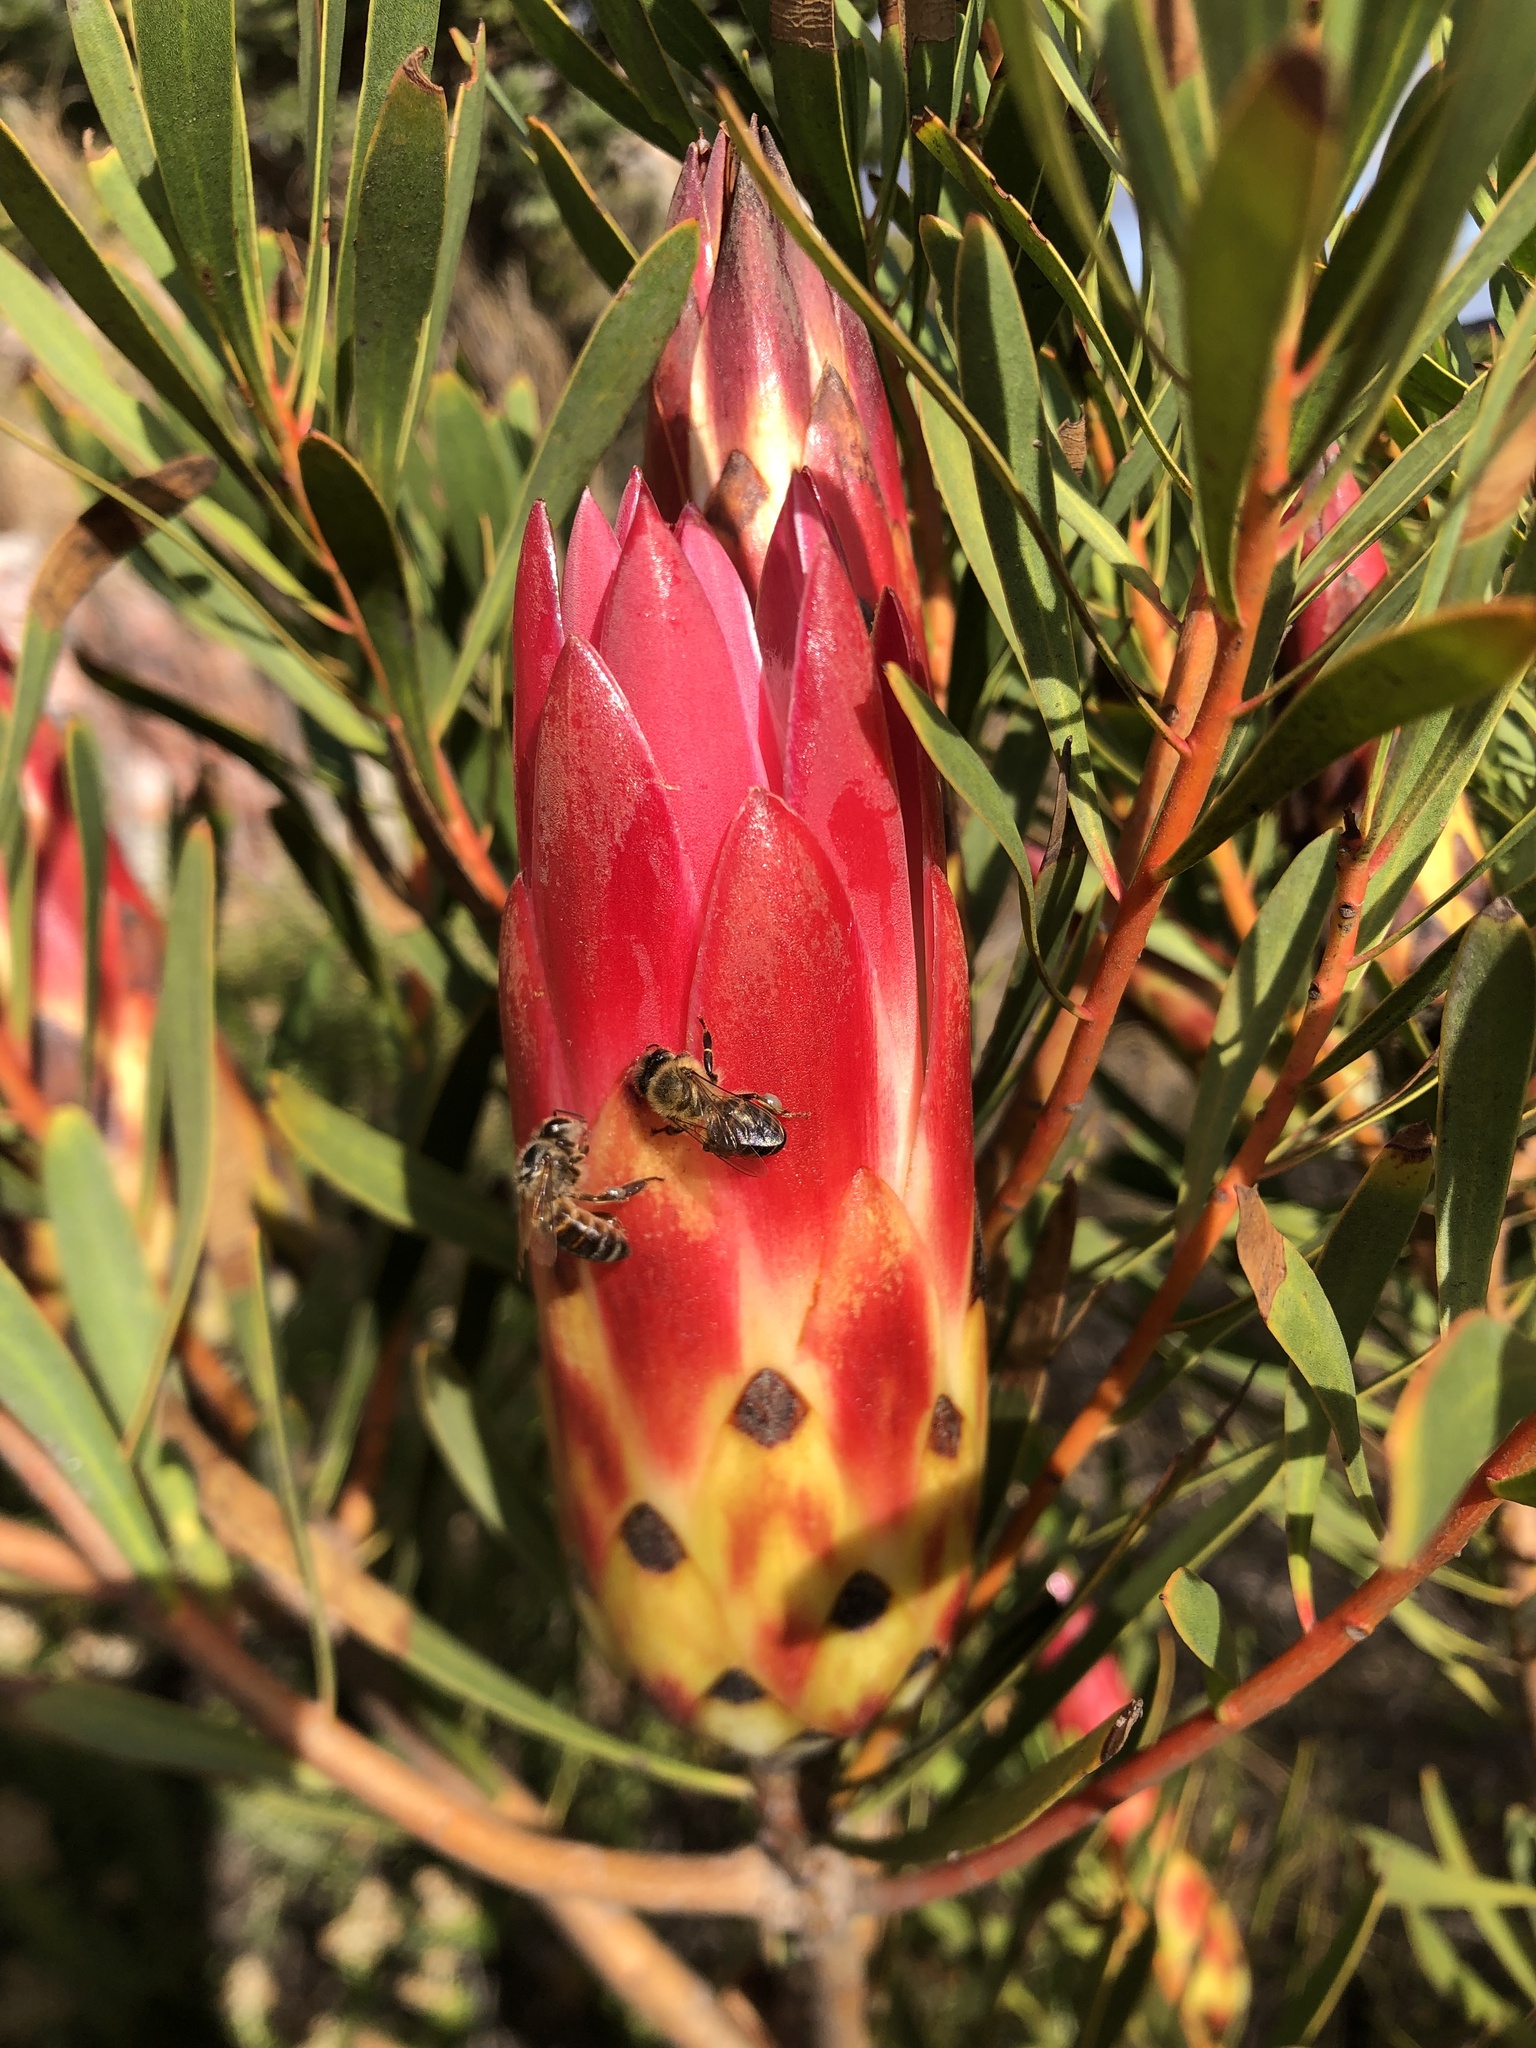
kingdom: Animalia
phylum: Arthropoda
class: Insecta
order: Hymenoptera
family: Apidae
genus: Apis
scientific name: Apis mellifera
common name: Honey bee
